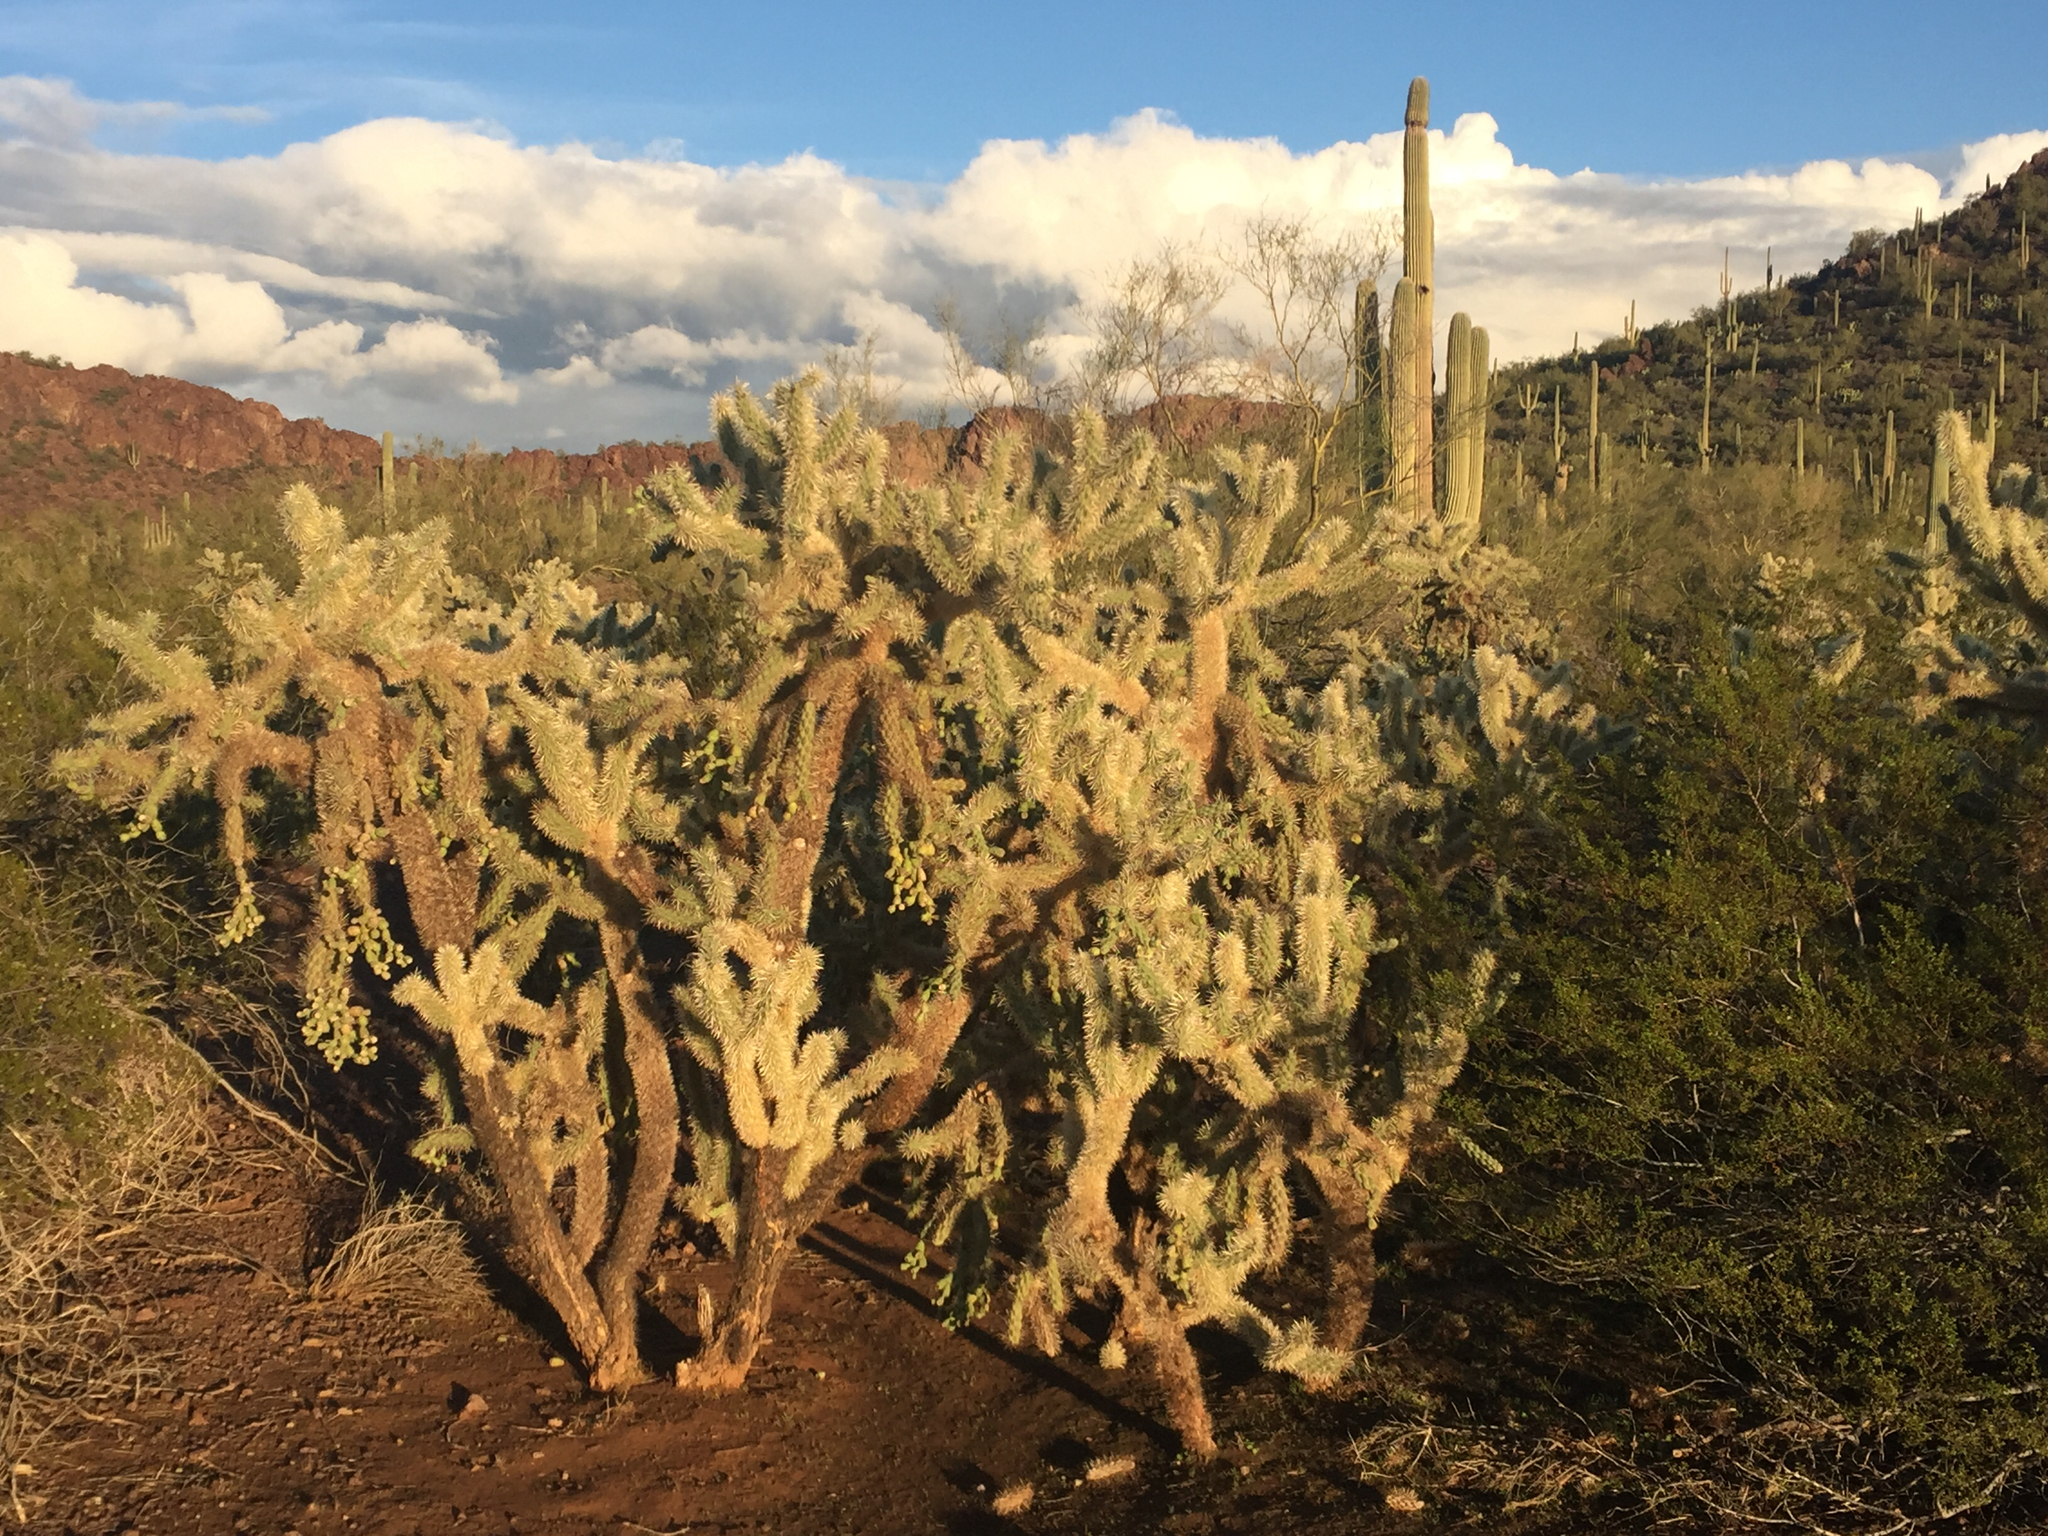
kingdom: Plantae
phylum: Tracheophyta
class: Magnoliopsida
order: Caryophyllales
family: Cactaceae
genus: Cylindropuntia
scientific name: Cylindropuntia fulgida
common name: Jumping cholla
